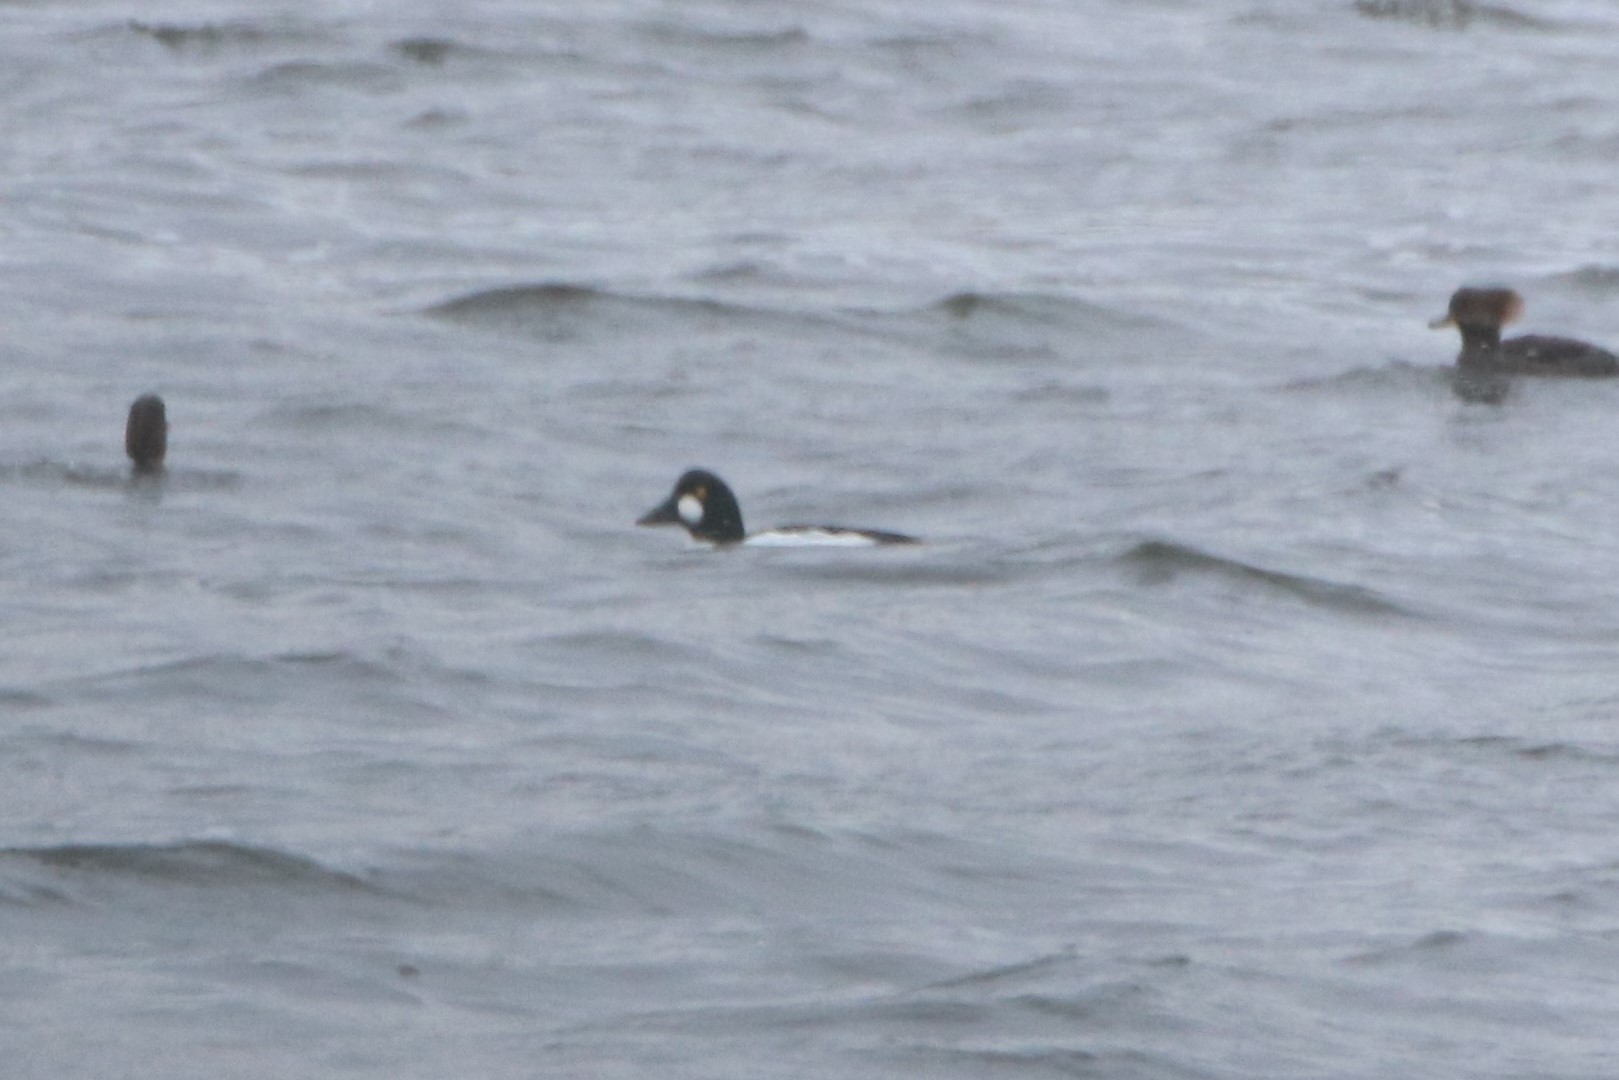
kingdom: Animalia
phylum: Chordata
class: Aves
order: Anseriformes
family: Anatidae
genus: Bucephala
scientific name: Bucephala clangula
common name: Common goldeneye
